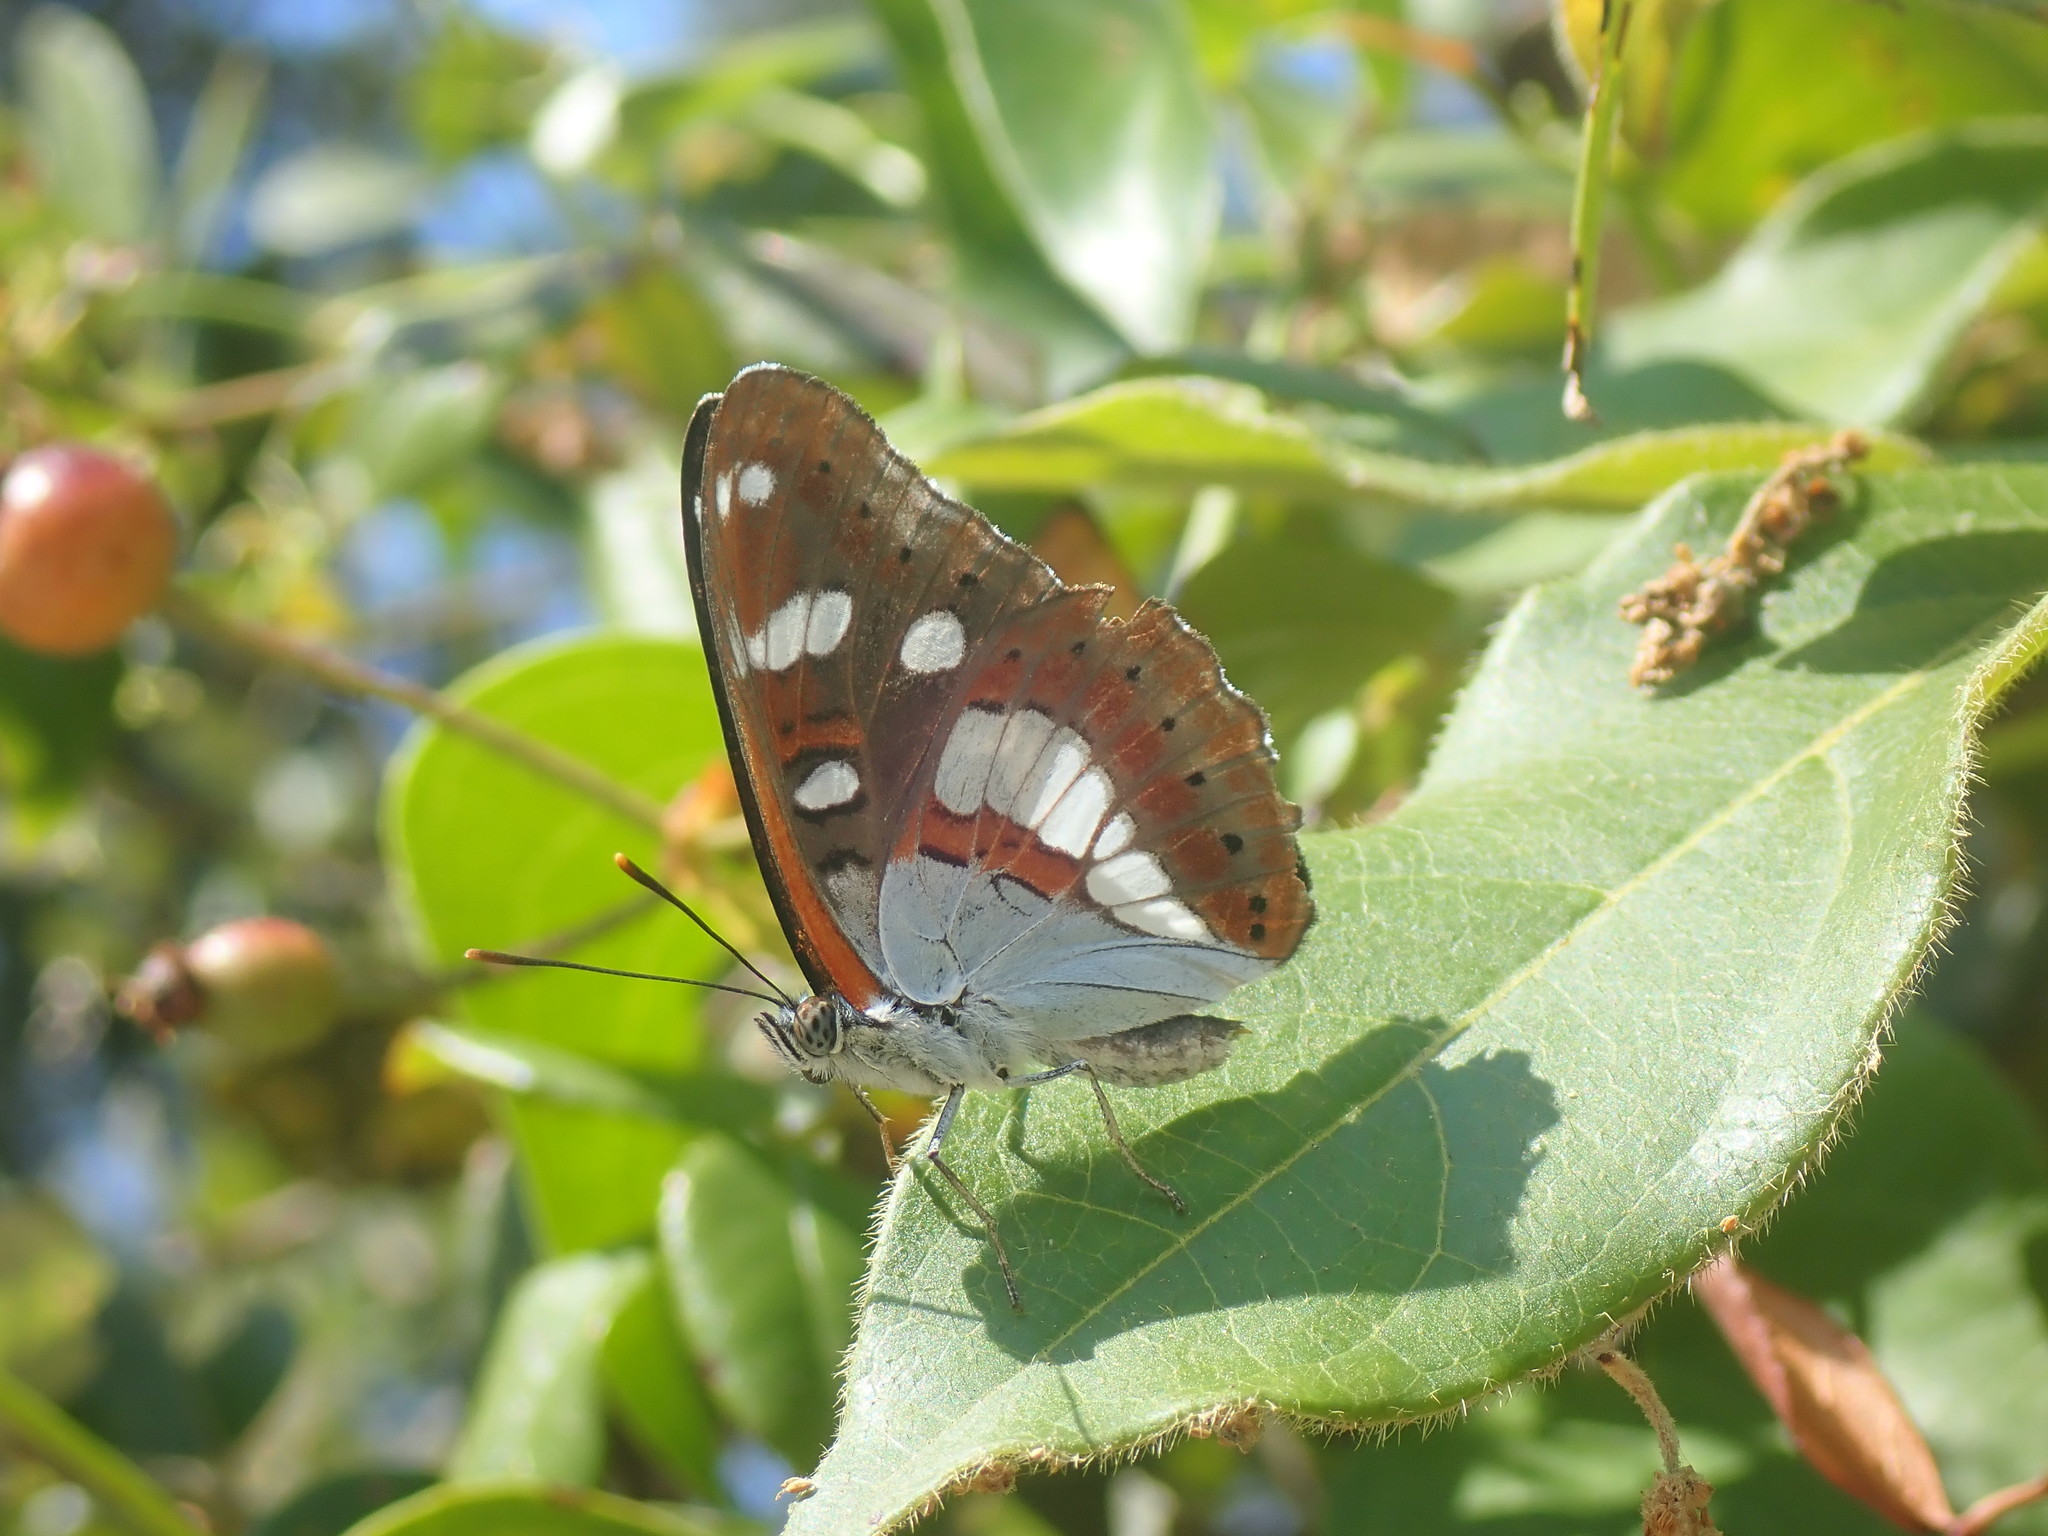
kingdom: Animalia
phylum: Arthropoda
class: Insecta
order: Lepidoptera
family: Nymphalidae
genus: Limenitis
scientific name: Limenitis reducta
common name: Southern white admiral
